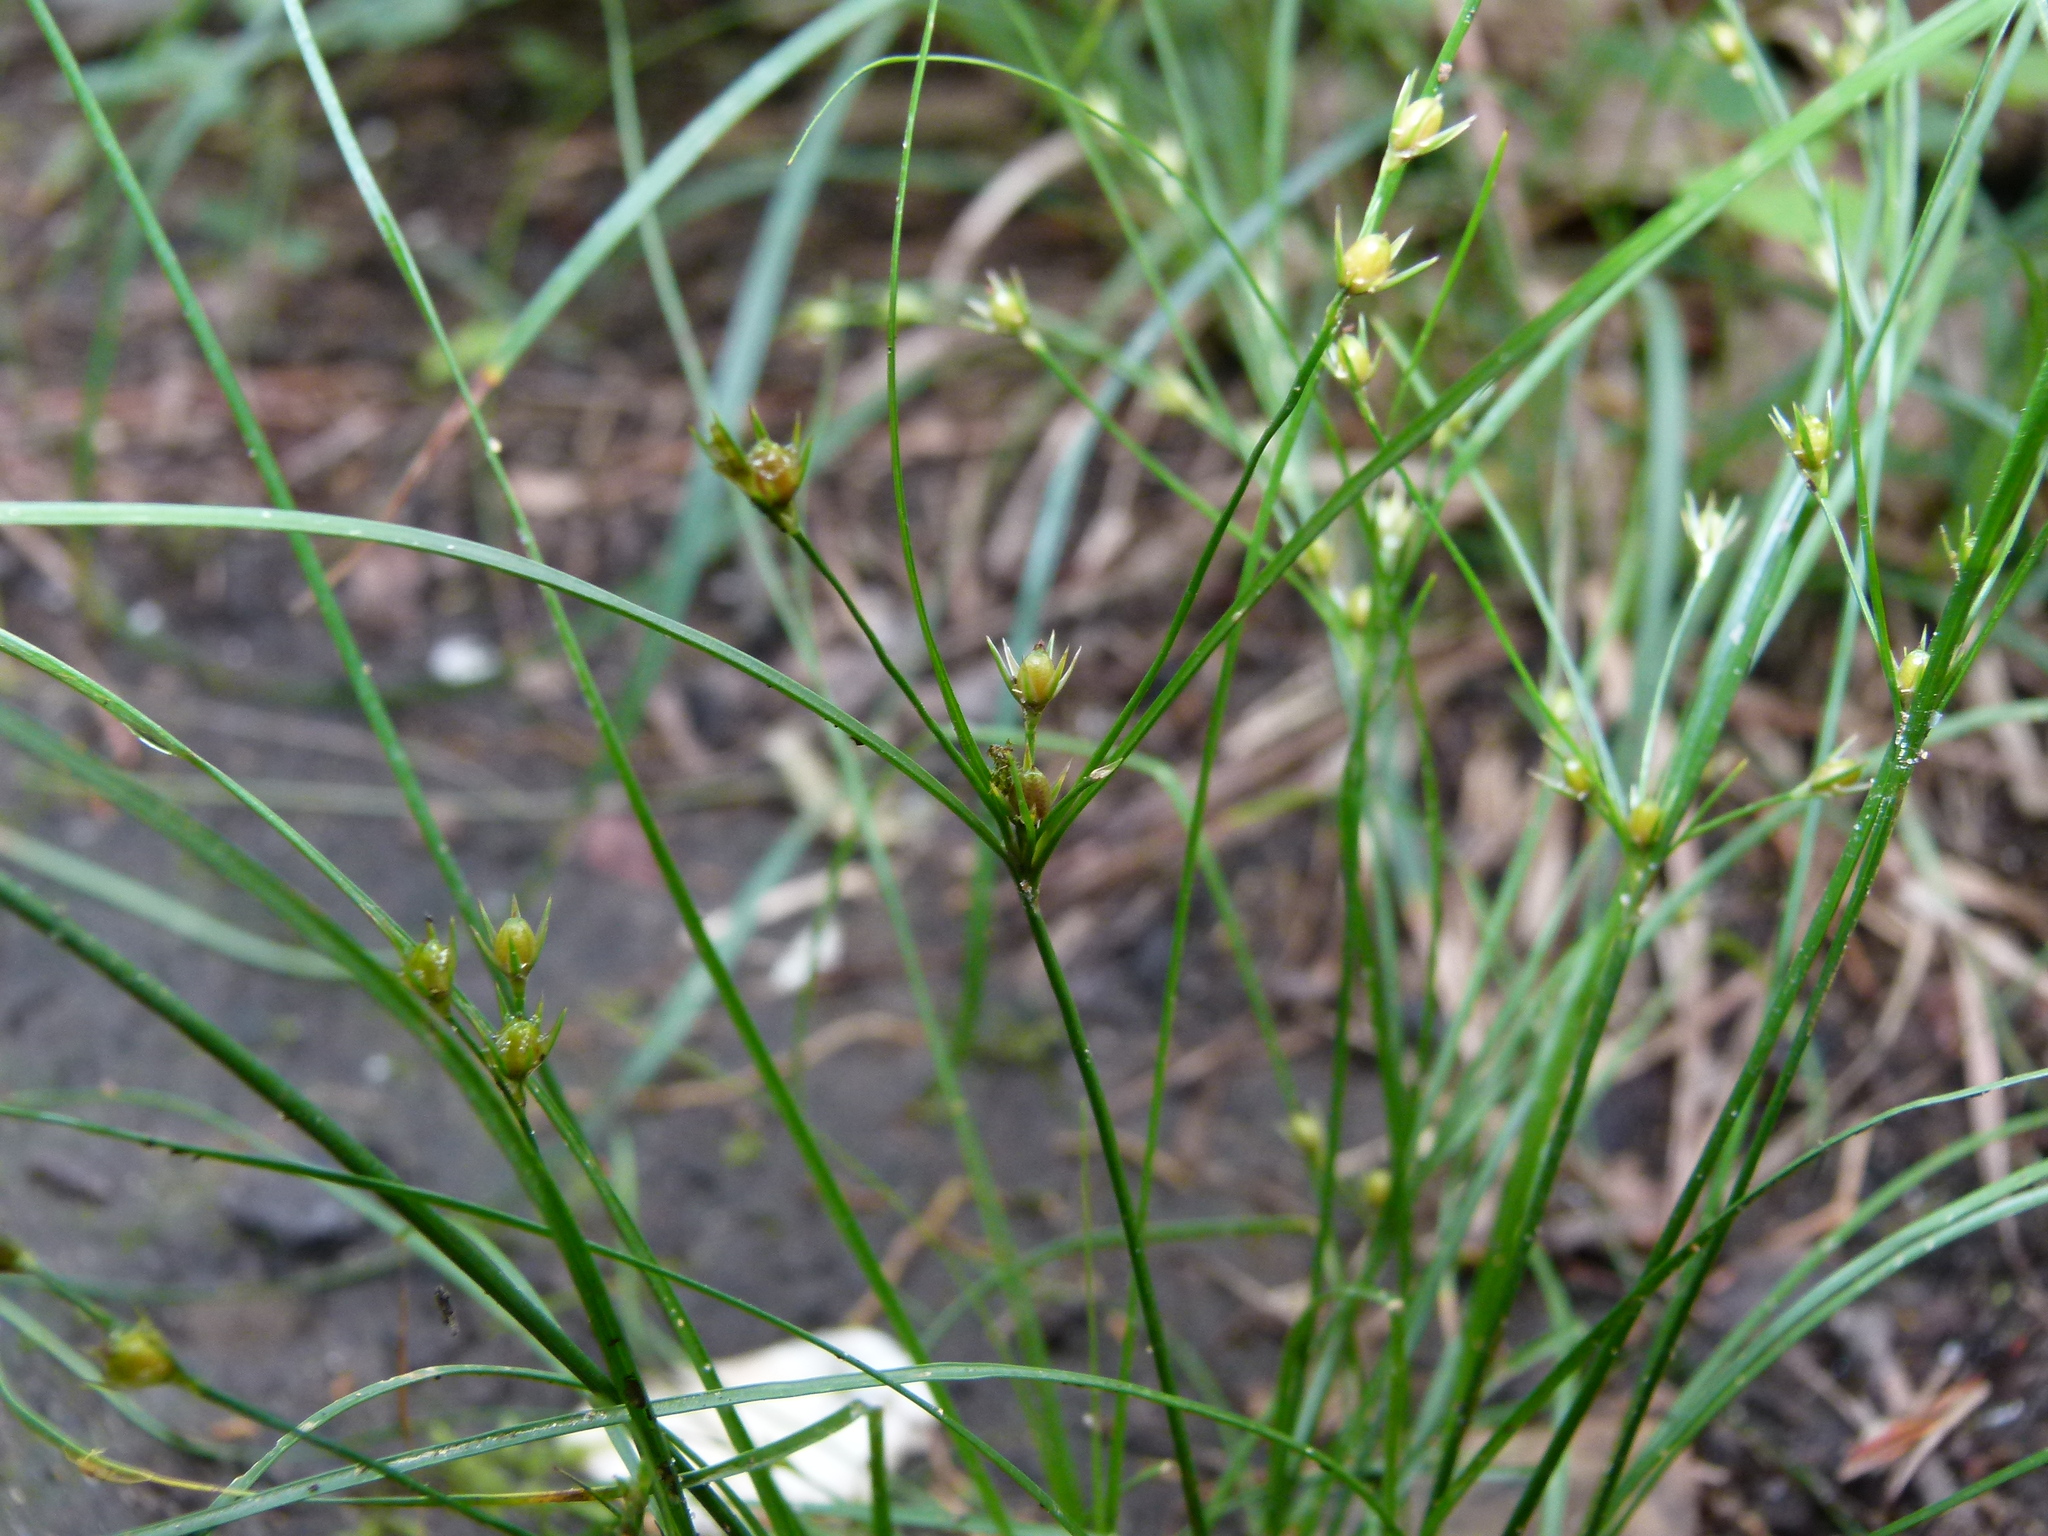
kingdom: Plantae
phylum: Tracheophyta
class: Liliopsida
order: Poales
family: Juncaceae
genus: Juncus
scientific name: Juncus tenuis
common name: Slender rush
